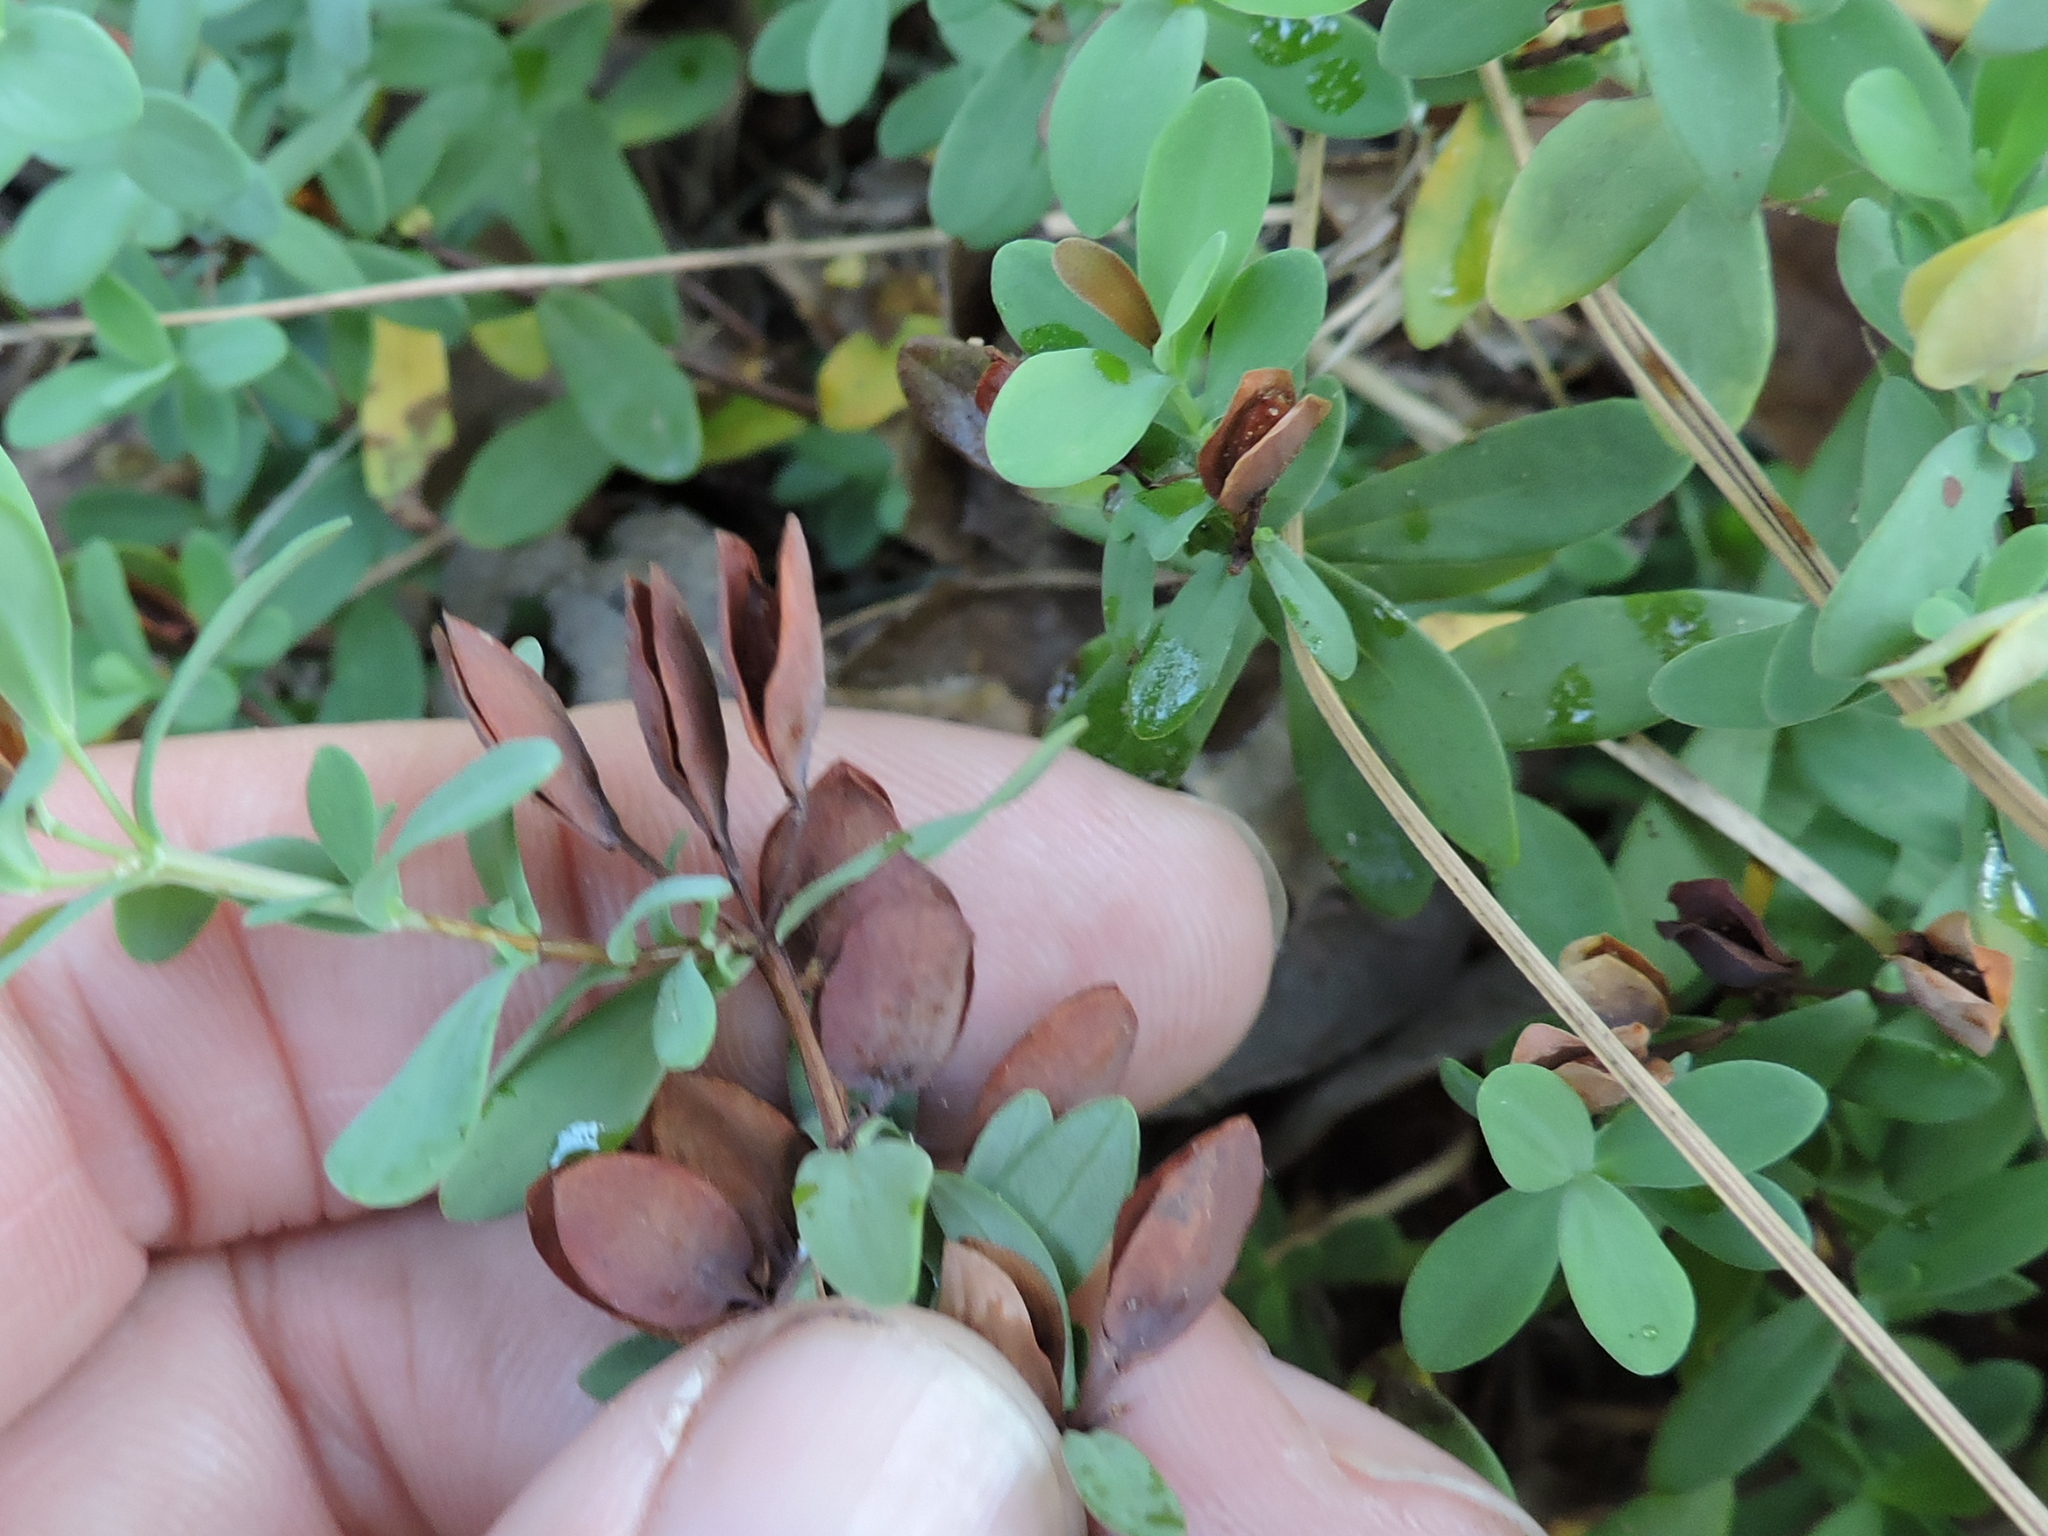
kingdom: Plantae
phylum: Tracheophyta
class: Magnoliopsida
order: Malpighiales
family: Hypericaceae
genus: Hypericum
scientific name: Hypericum hypericoides
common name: St. andrew's cross
